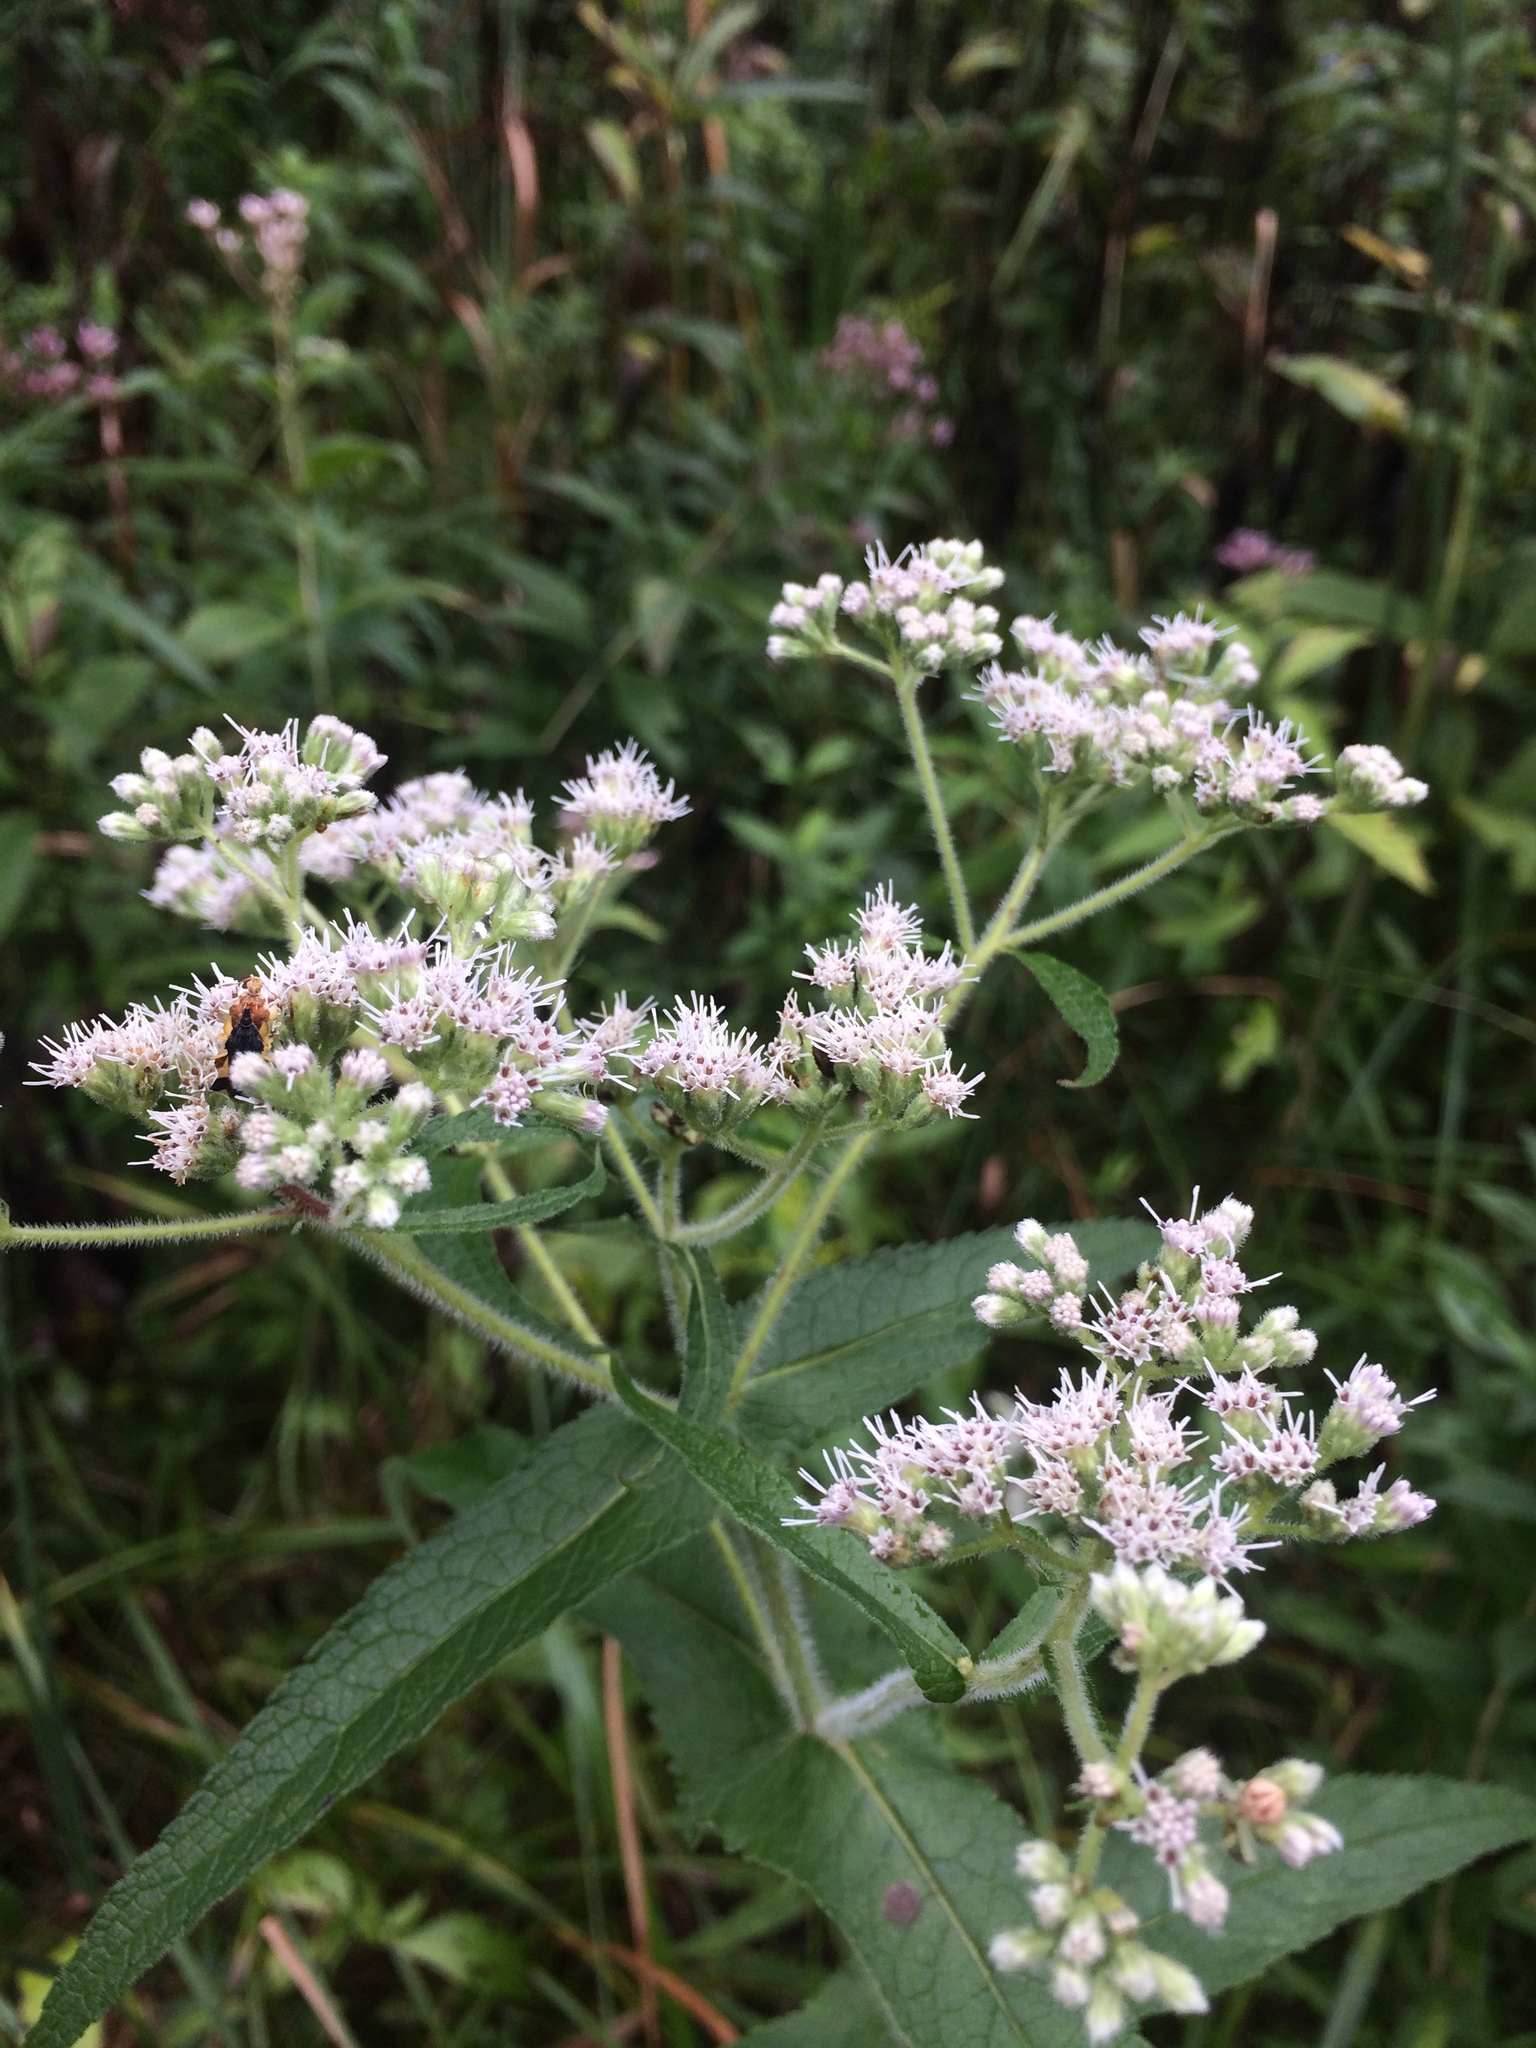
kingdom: Plantae
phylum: Tracheophyta
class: Magnoliopsida
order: Asterales
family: Asteraceae
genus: Eupatorium
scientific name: Eupatorium perfoliatum
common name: Boneset
